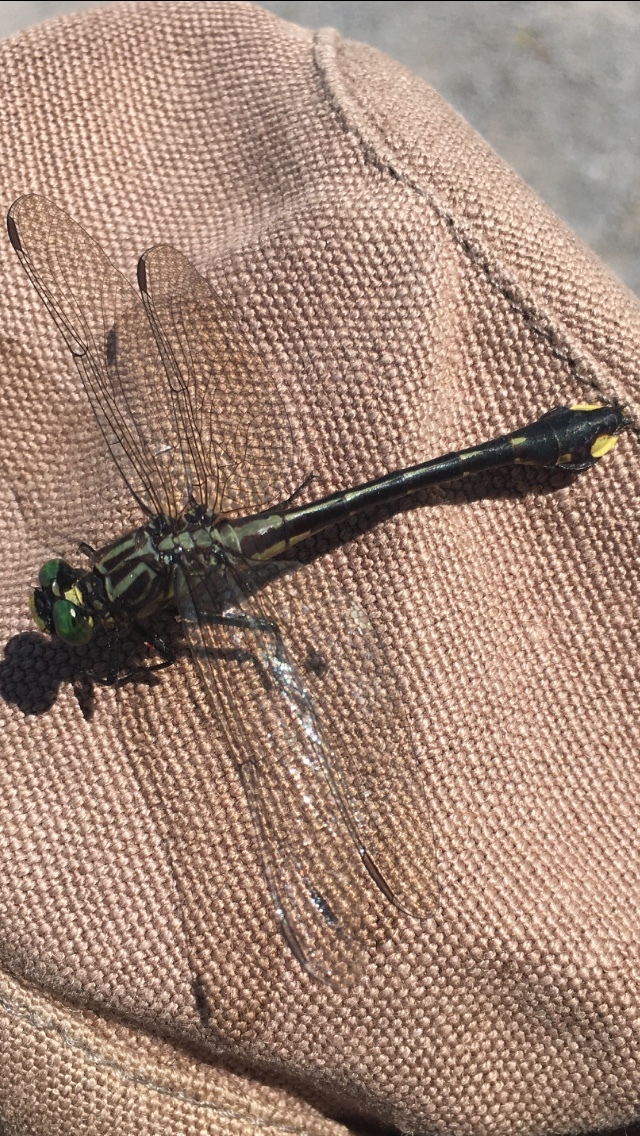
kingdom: Animalia
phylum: Arthropoda
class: Insecta
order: Odonata
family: Gomphidae
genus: Gomphurus
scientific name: Gomphurus vastus
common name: Cobra clubtail
